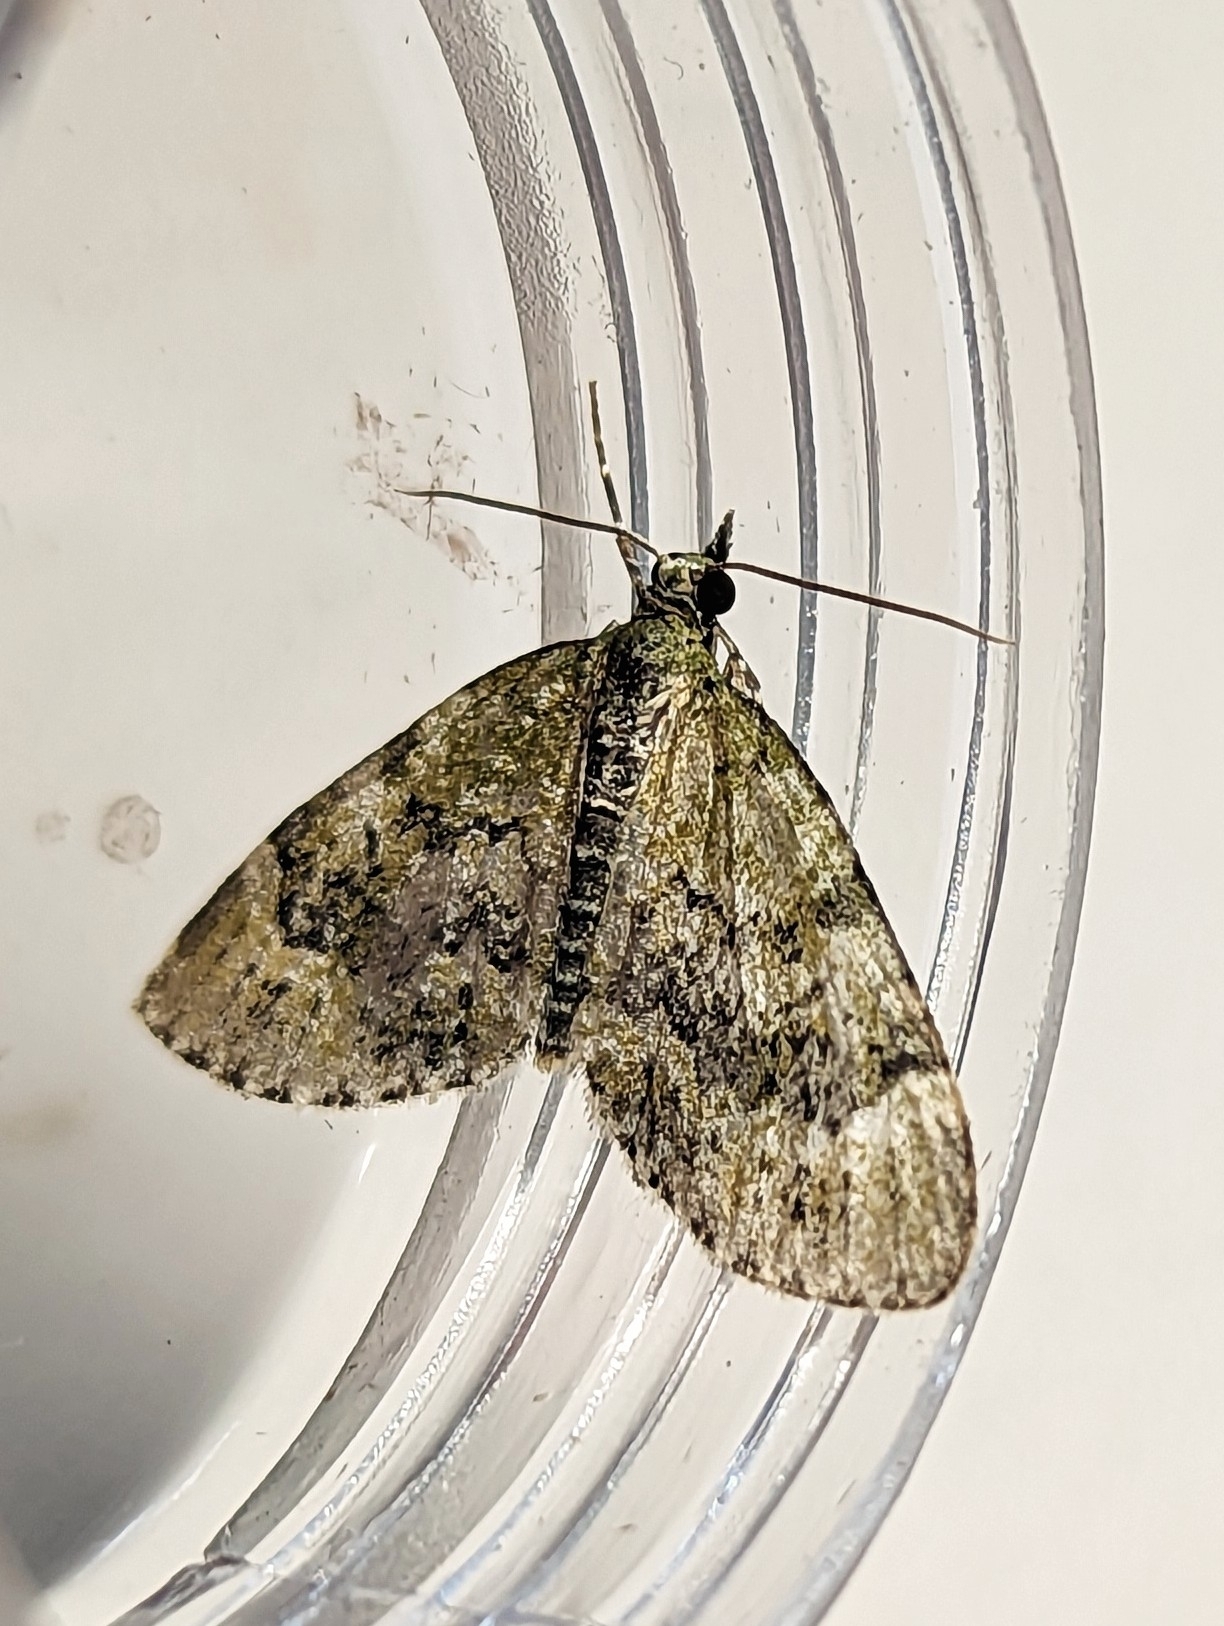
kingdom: Animalia
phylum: Arthropoda
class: Insecta
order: Lepidoptera
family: Geometridae
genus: Acasis
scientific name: Acasis viretata
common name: Yellow-barred brindle
